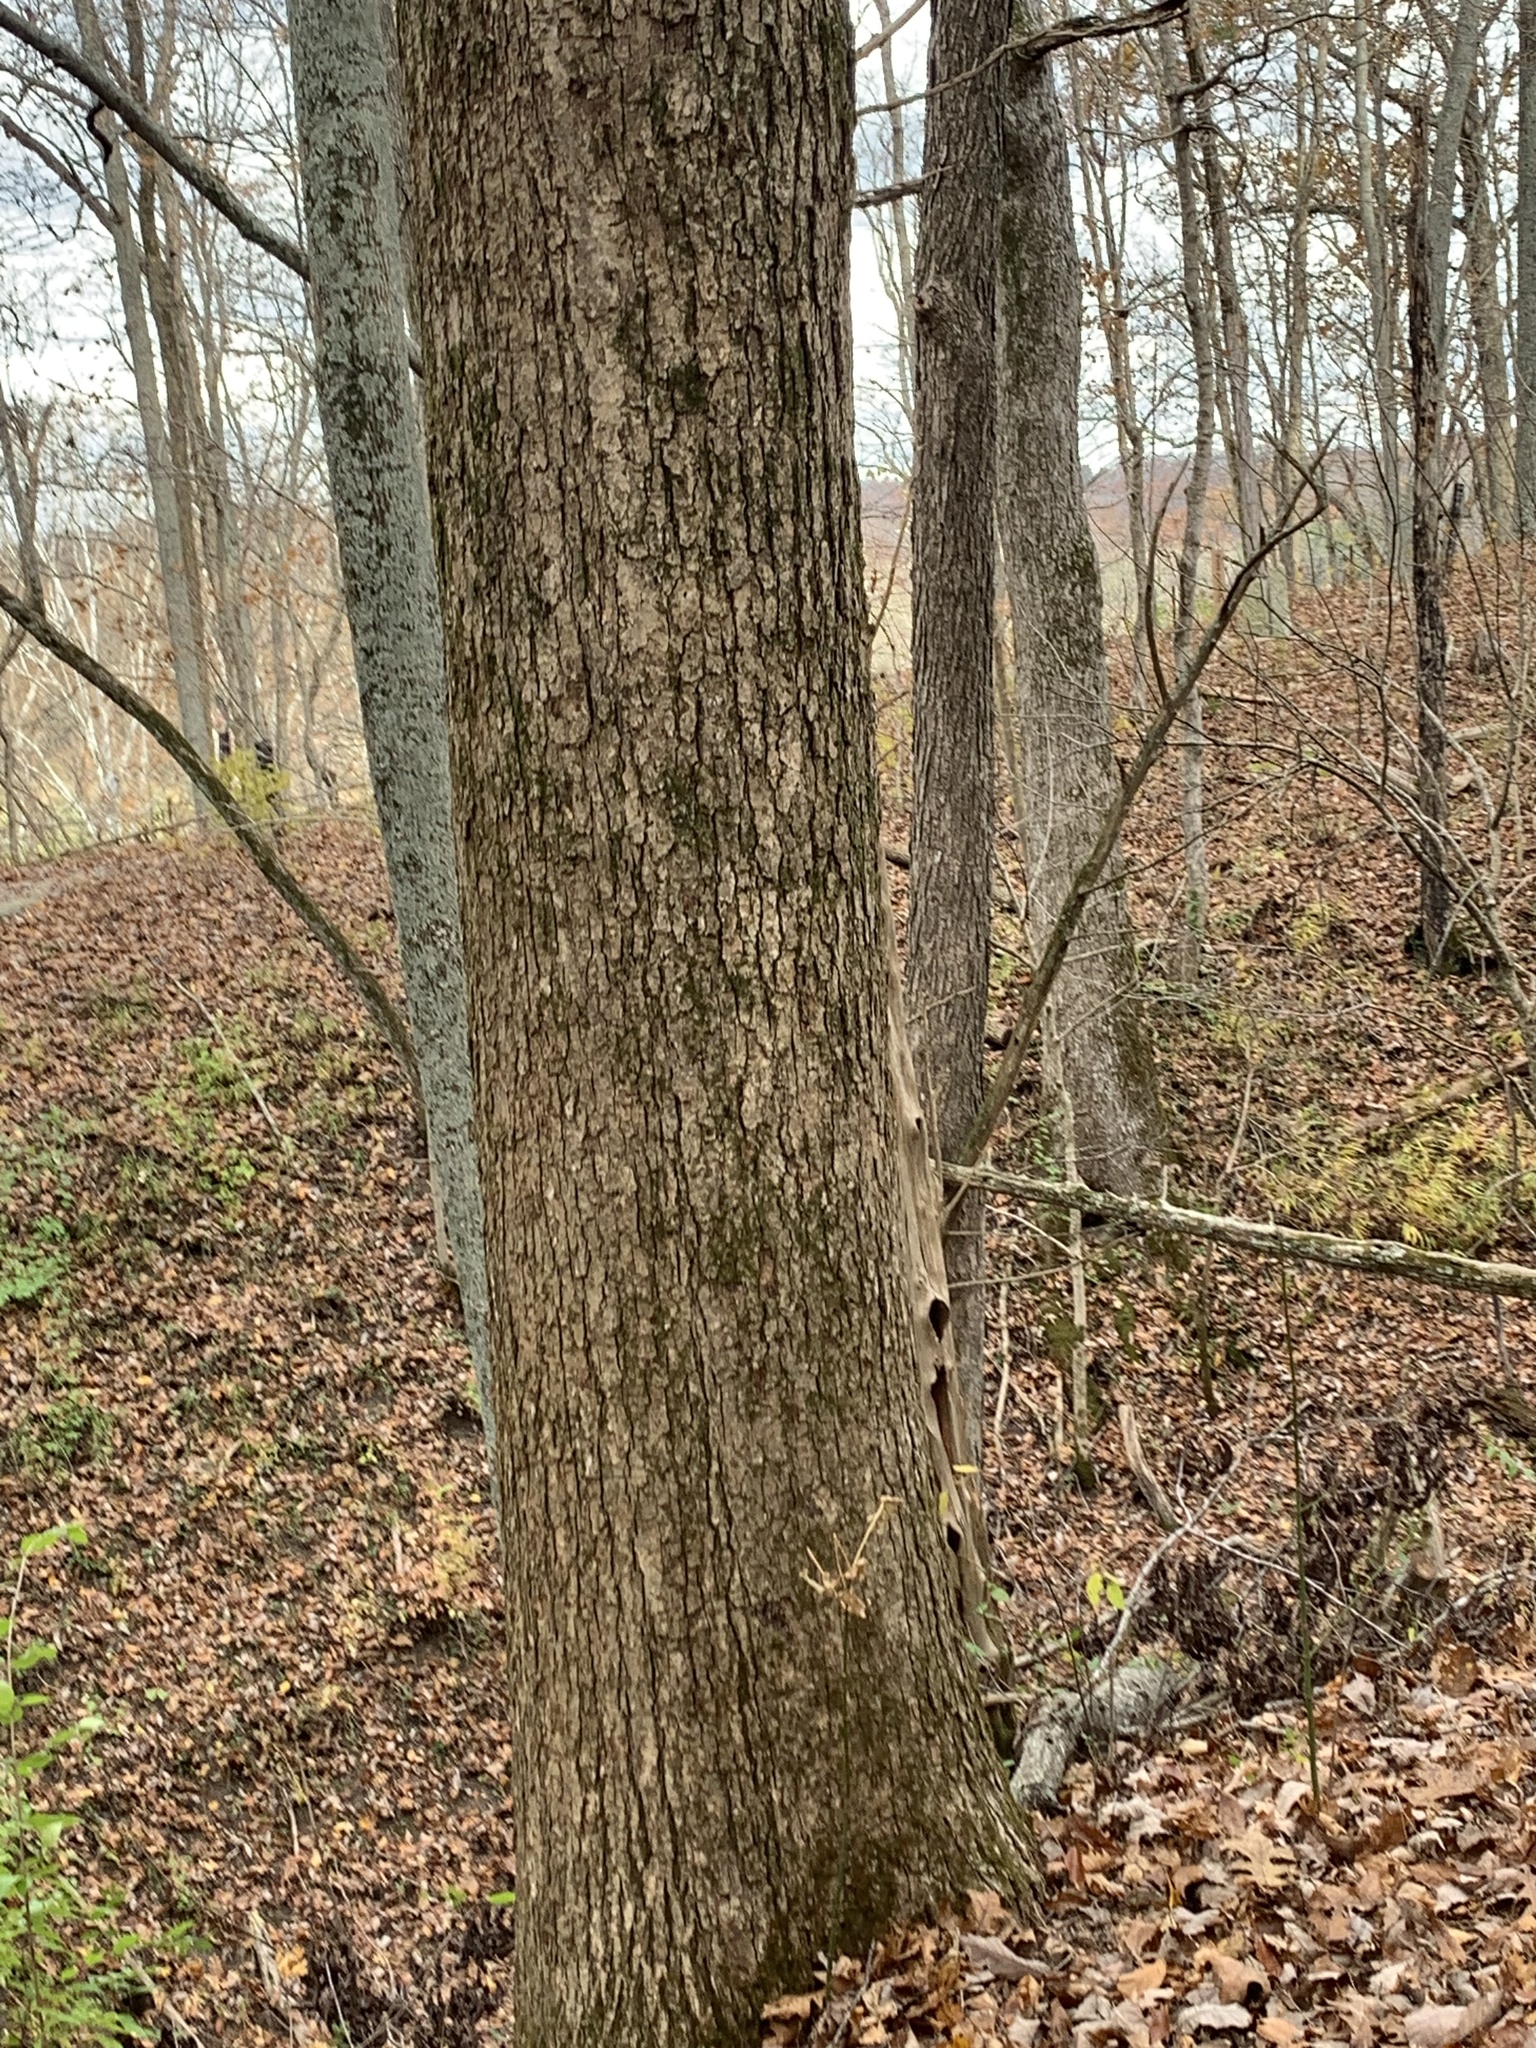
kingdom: Plantae
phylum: Tracheophyta
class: Magnoliopsida
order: Fagales
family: Fagaceae
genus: Quercus
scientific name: Quercus muehlenbergii
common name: Chinkapin oak
